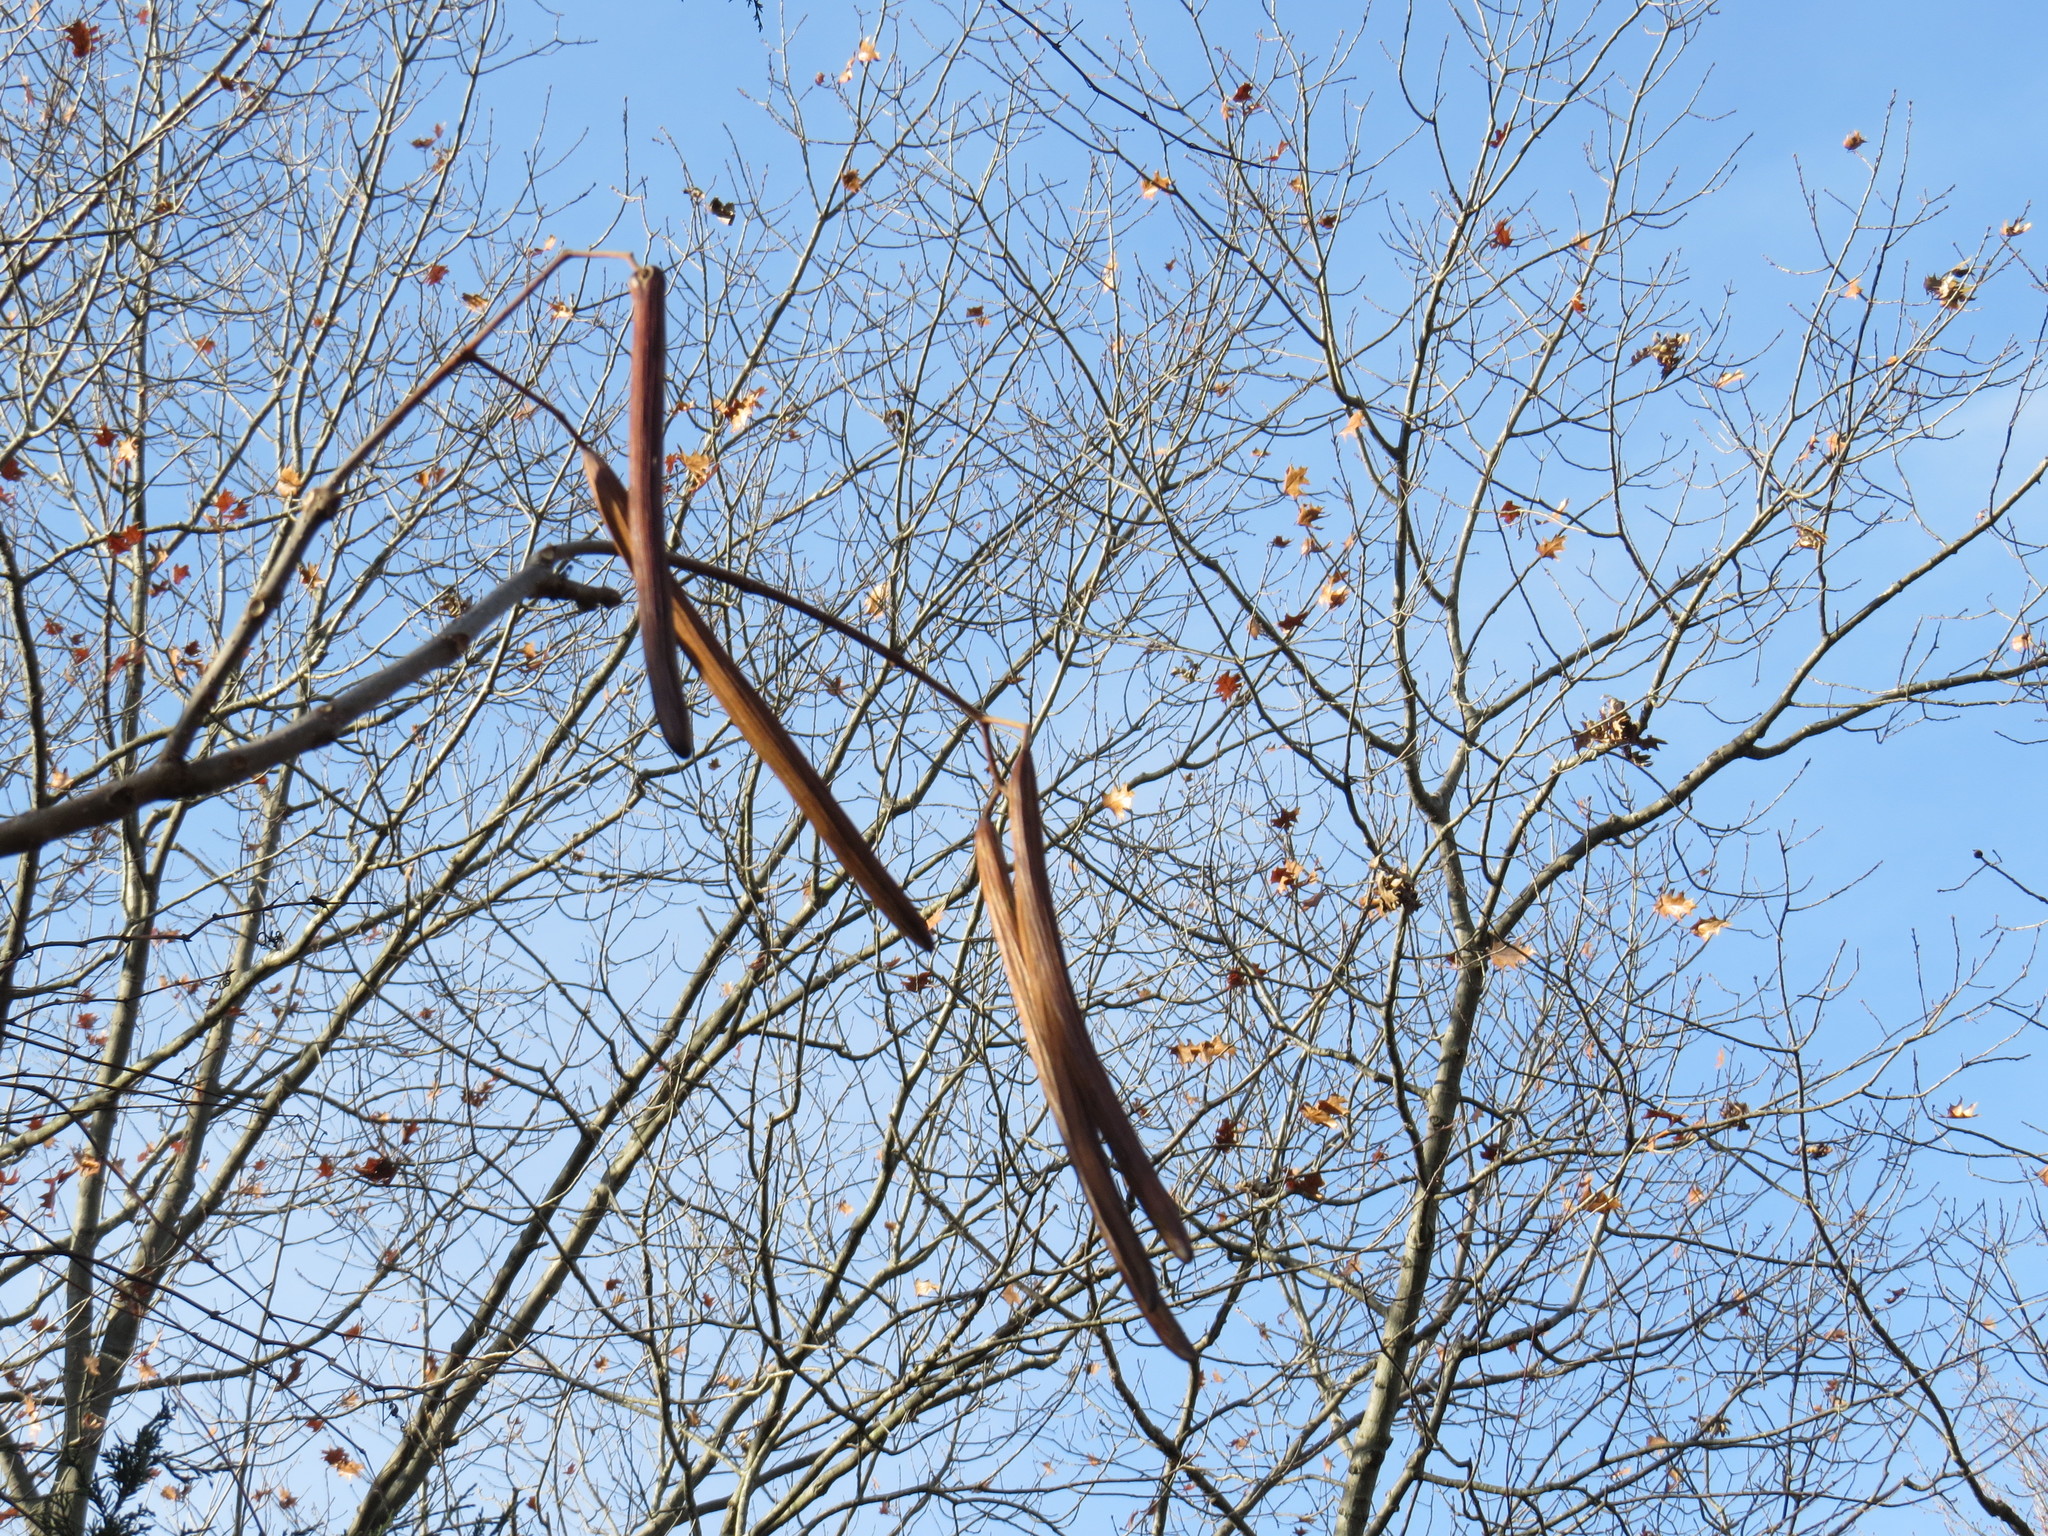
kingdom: Plantae
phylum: Tracheophyta
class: Magnoliopsida
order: Lamiales
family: Bignoniaceae
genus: Catalpa
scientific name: Catalpa speciosa
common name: Northern catalpa
